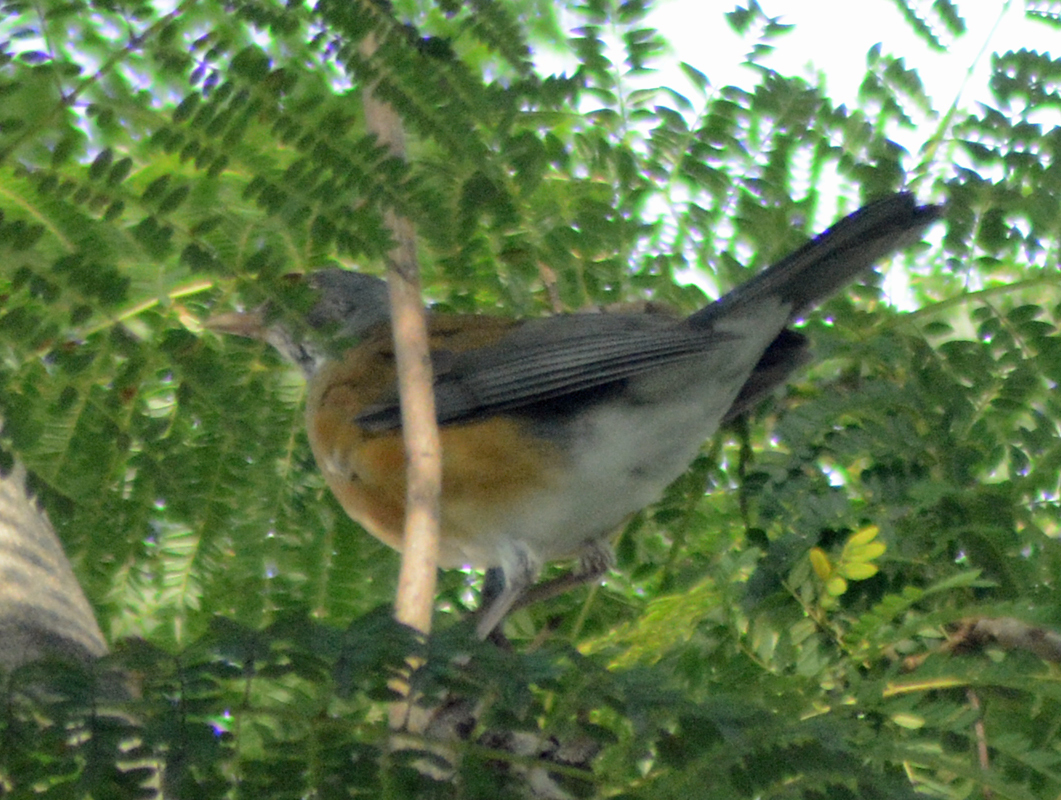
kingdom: Animalia
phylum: Chordata
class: Aves
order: Passeriformes
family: Turdidae
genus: Turdus
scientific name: Turdus rufopalliatus
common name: Rufous-backed robin
